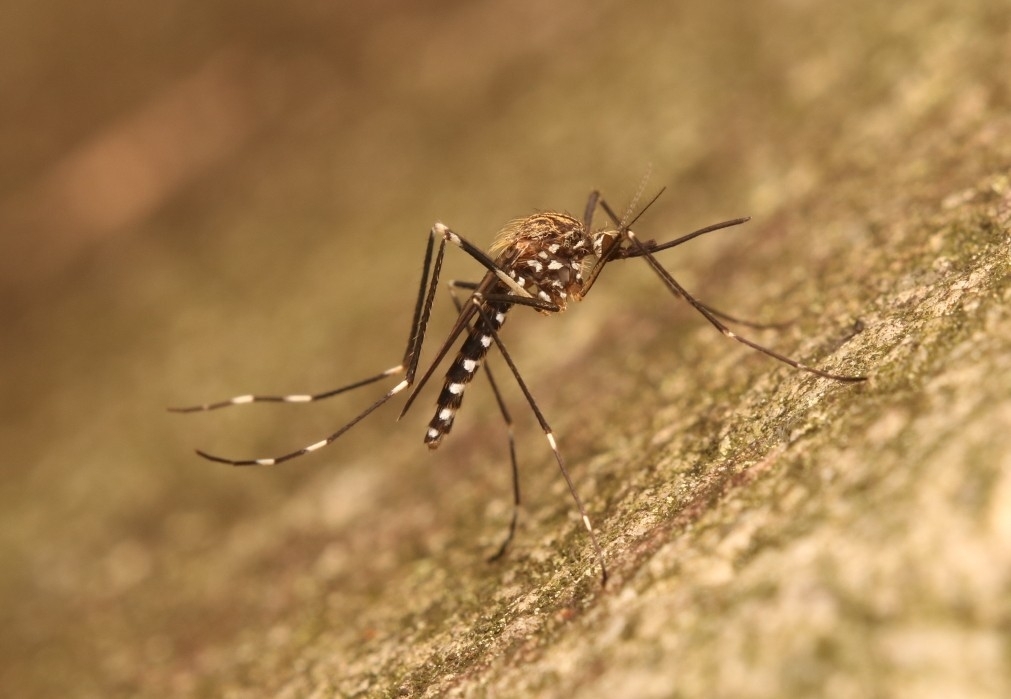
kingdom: Animalia
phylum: Arthropoda
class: Insecta
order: Diptera
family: Culicidae
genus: Aedes
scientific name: Aedes japonicus
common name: Asian bush mosquito
